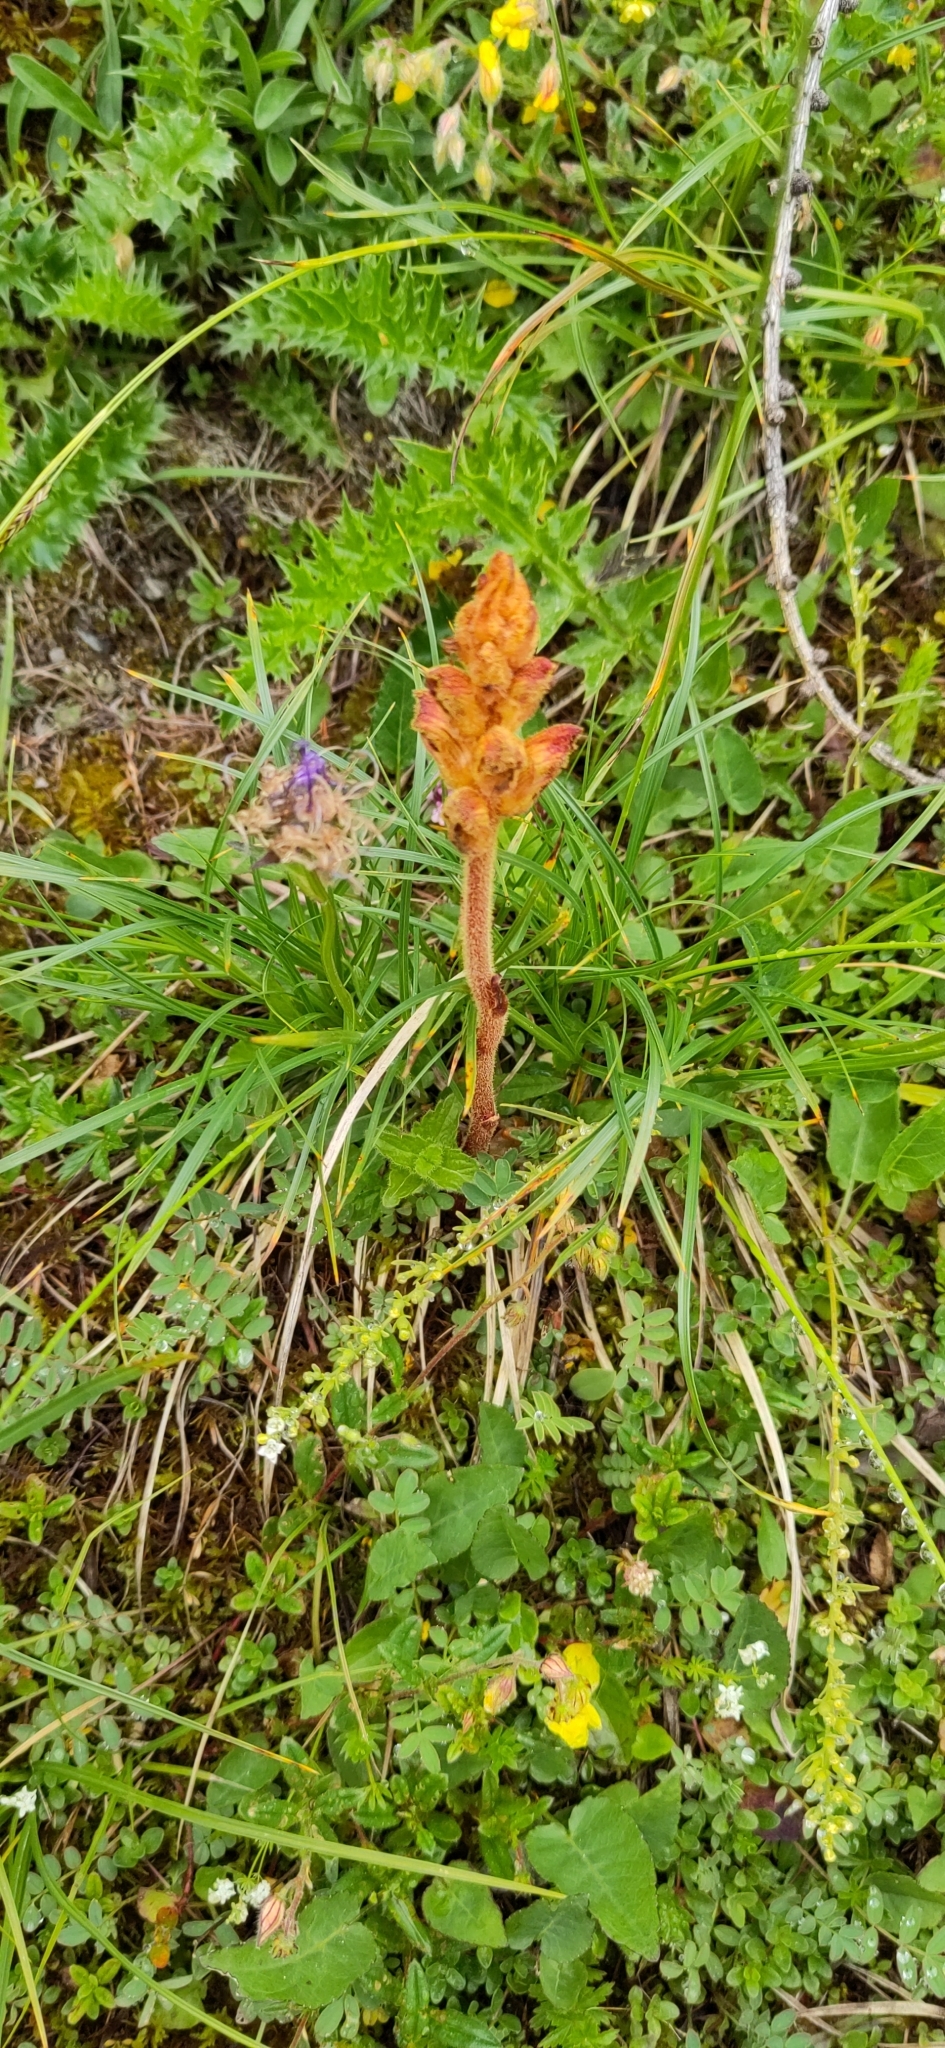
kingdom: Plantae
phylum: Tracheophyta
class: Magnoliopsida
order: Lamiales
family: Orobanchaceae
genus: Orobanche
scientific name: Orobanche gracilis
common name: Slender broomrape
